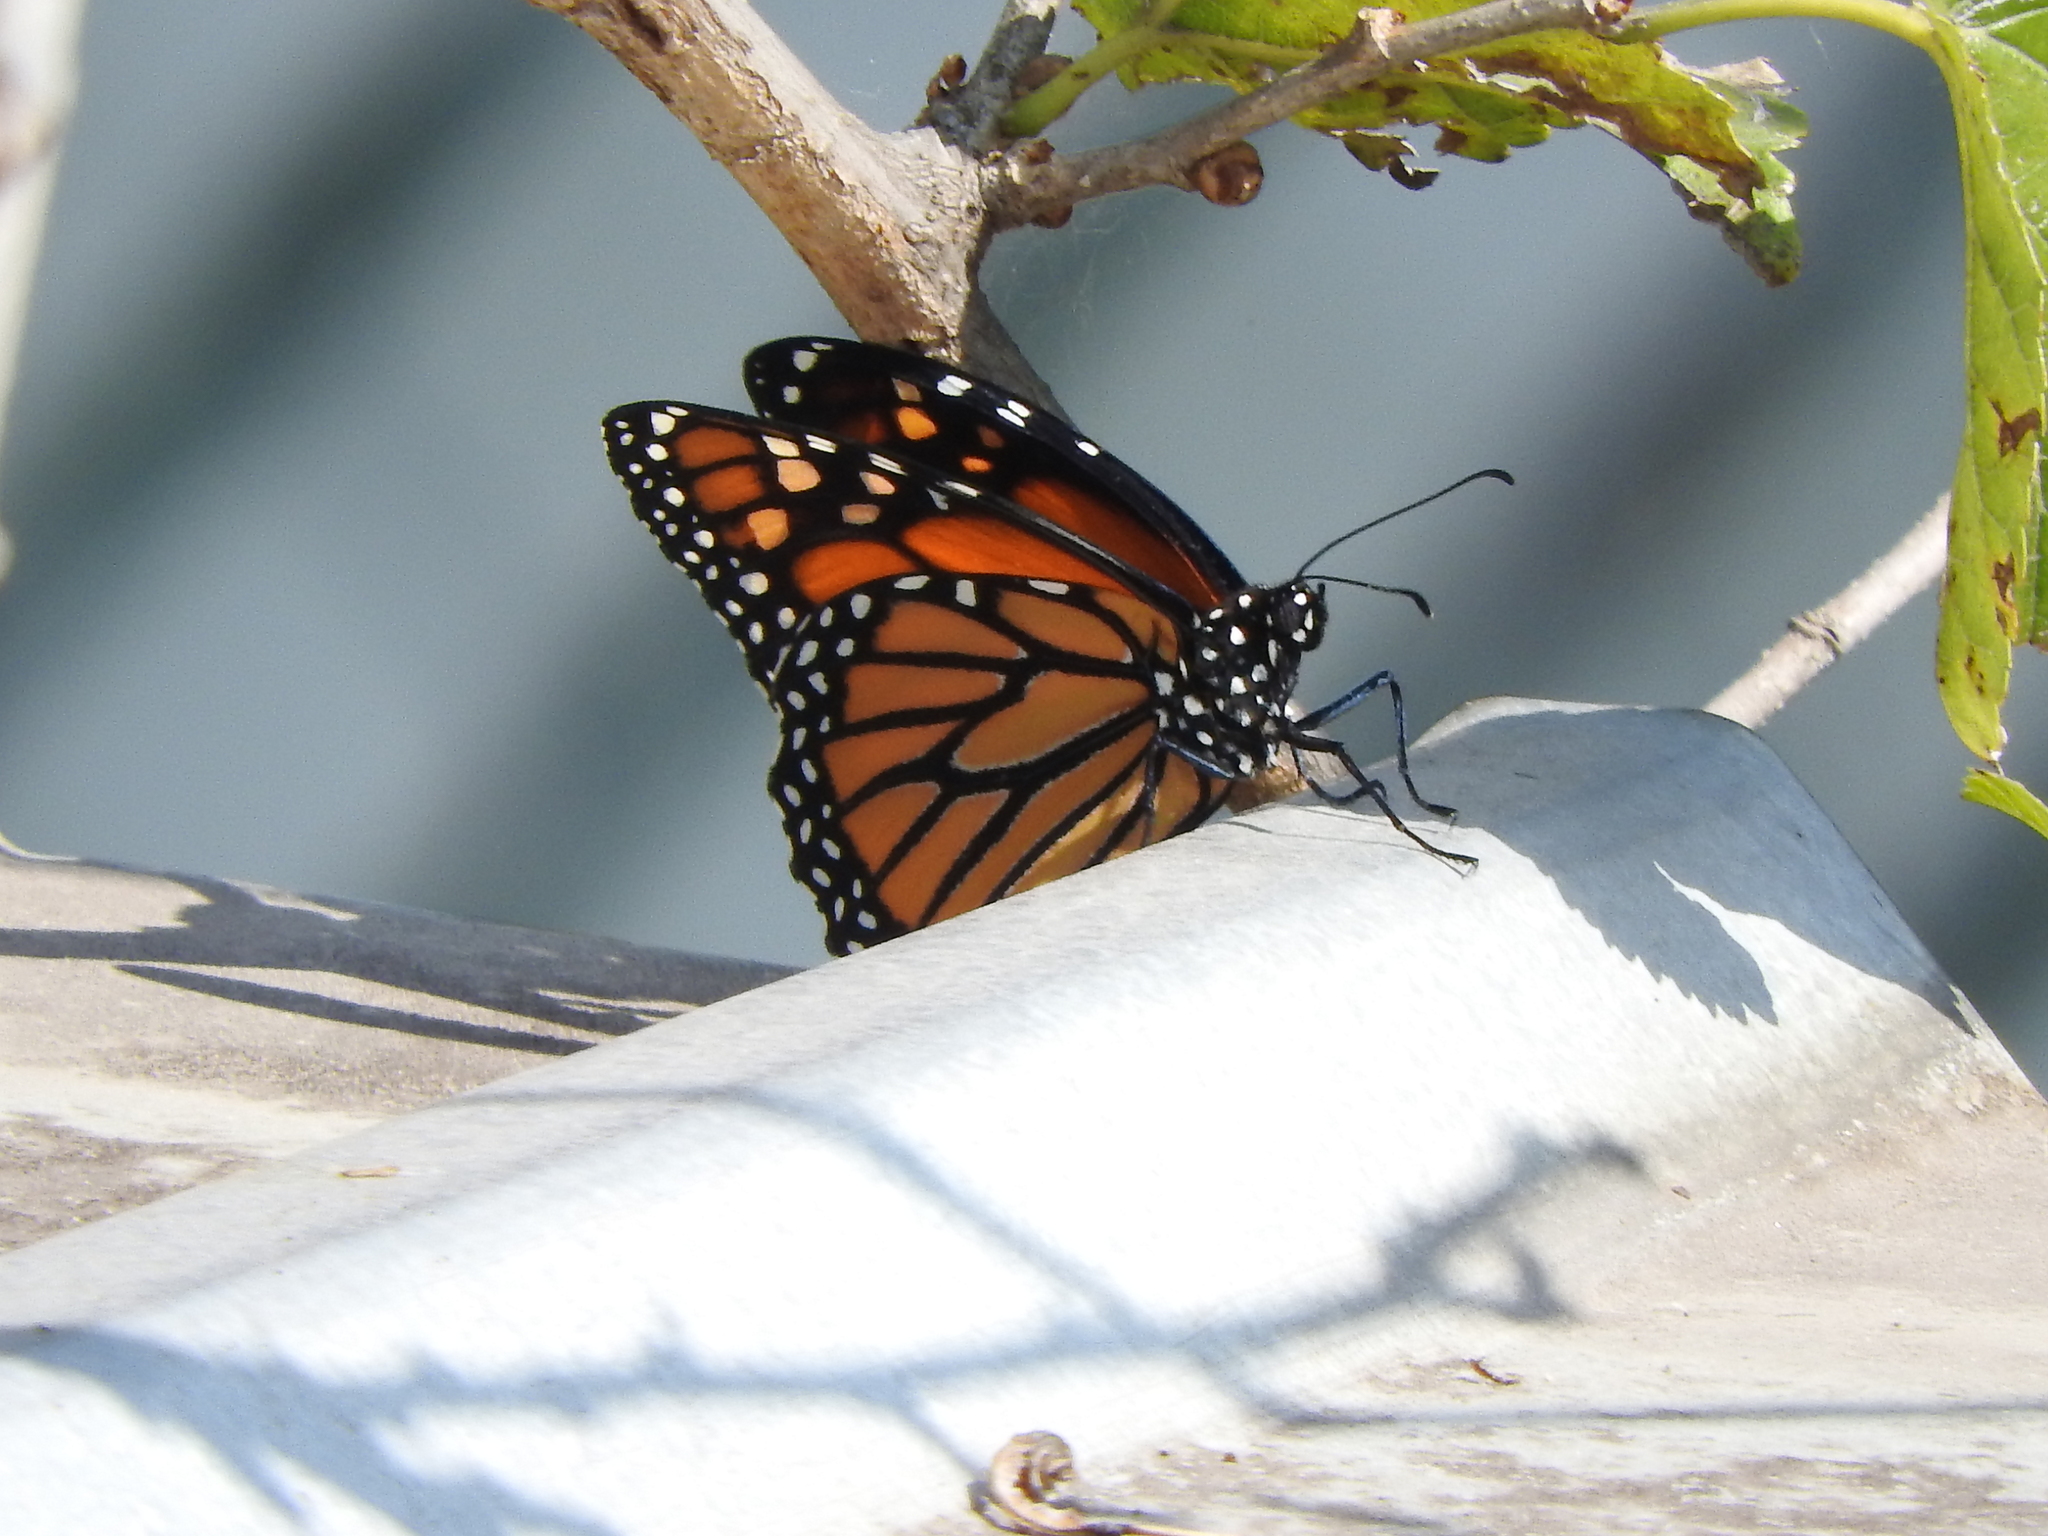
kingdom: Animalia
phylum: Arthropoda
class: Insecta
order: Lepidoptera
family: Nymphalidae
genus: Danaus
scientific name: Danaus plexippus
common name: Monarch
